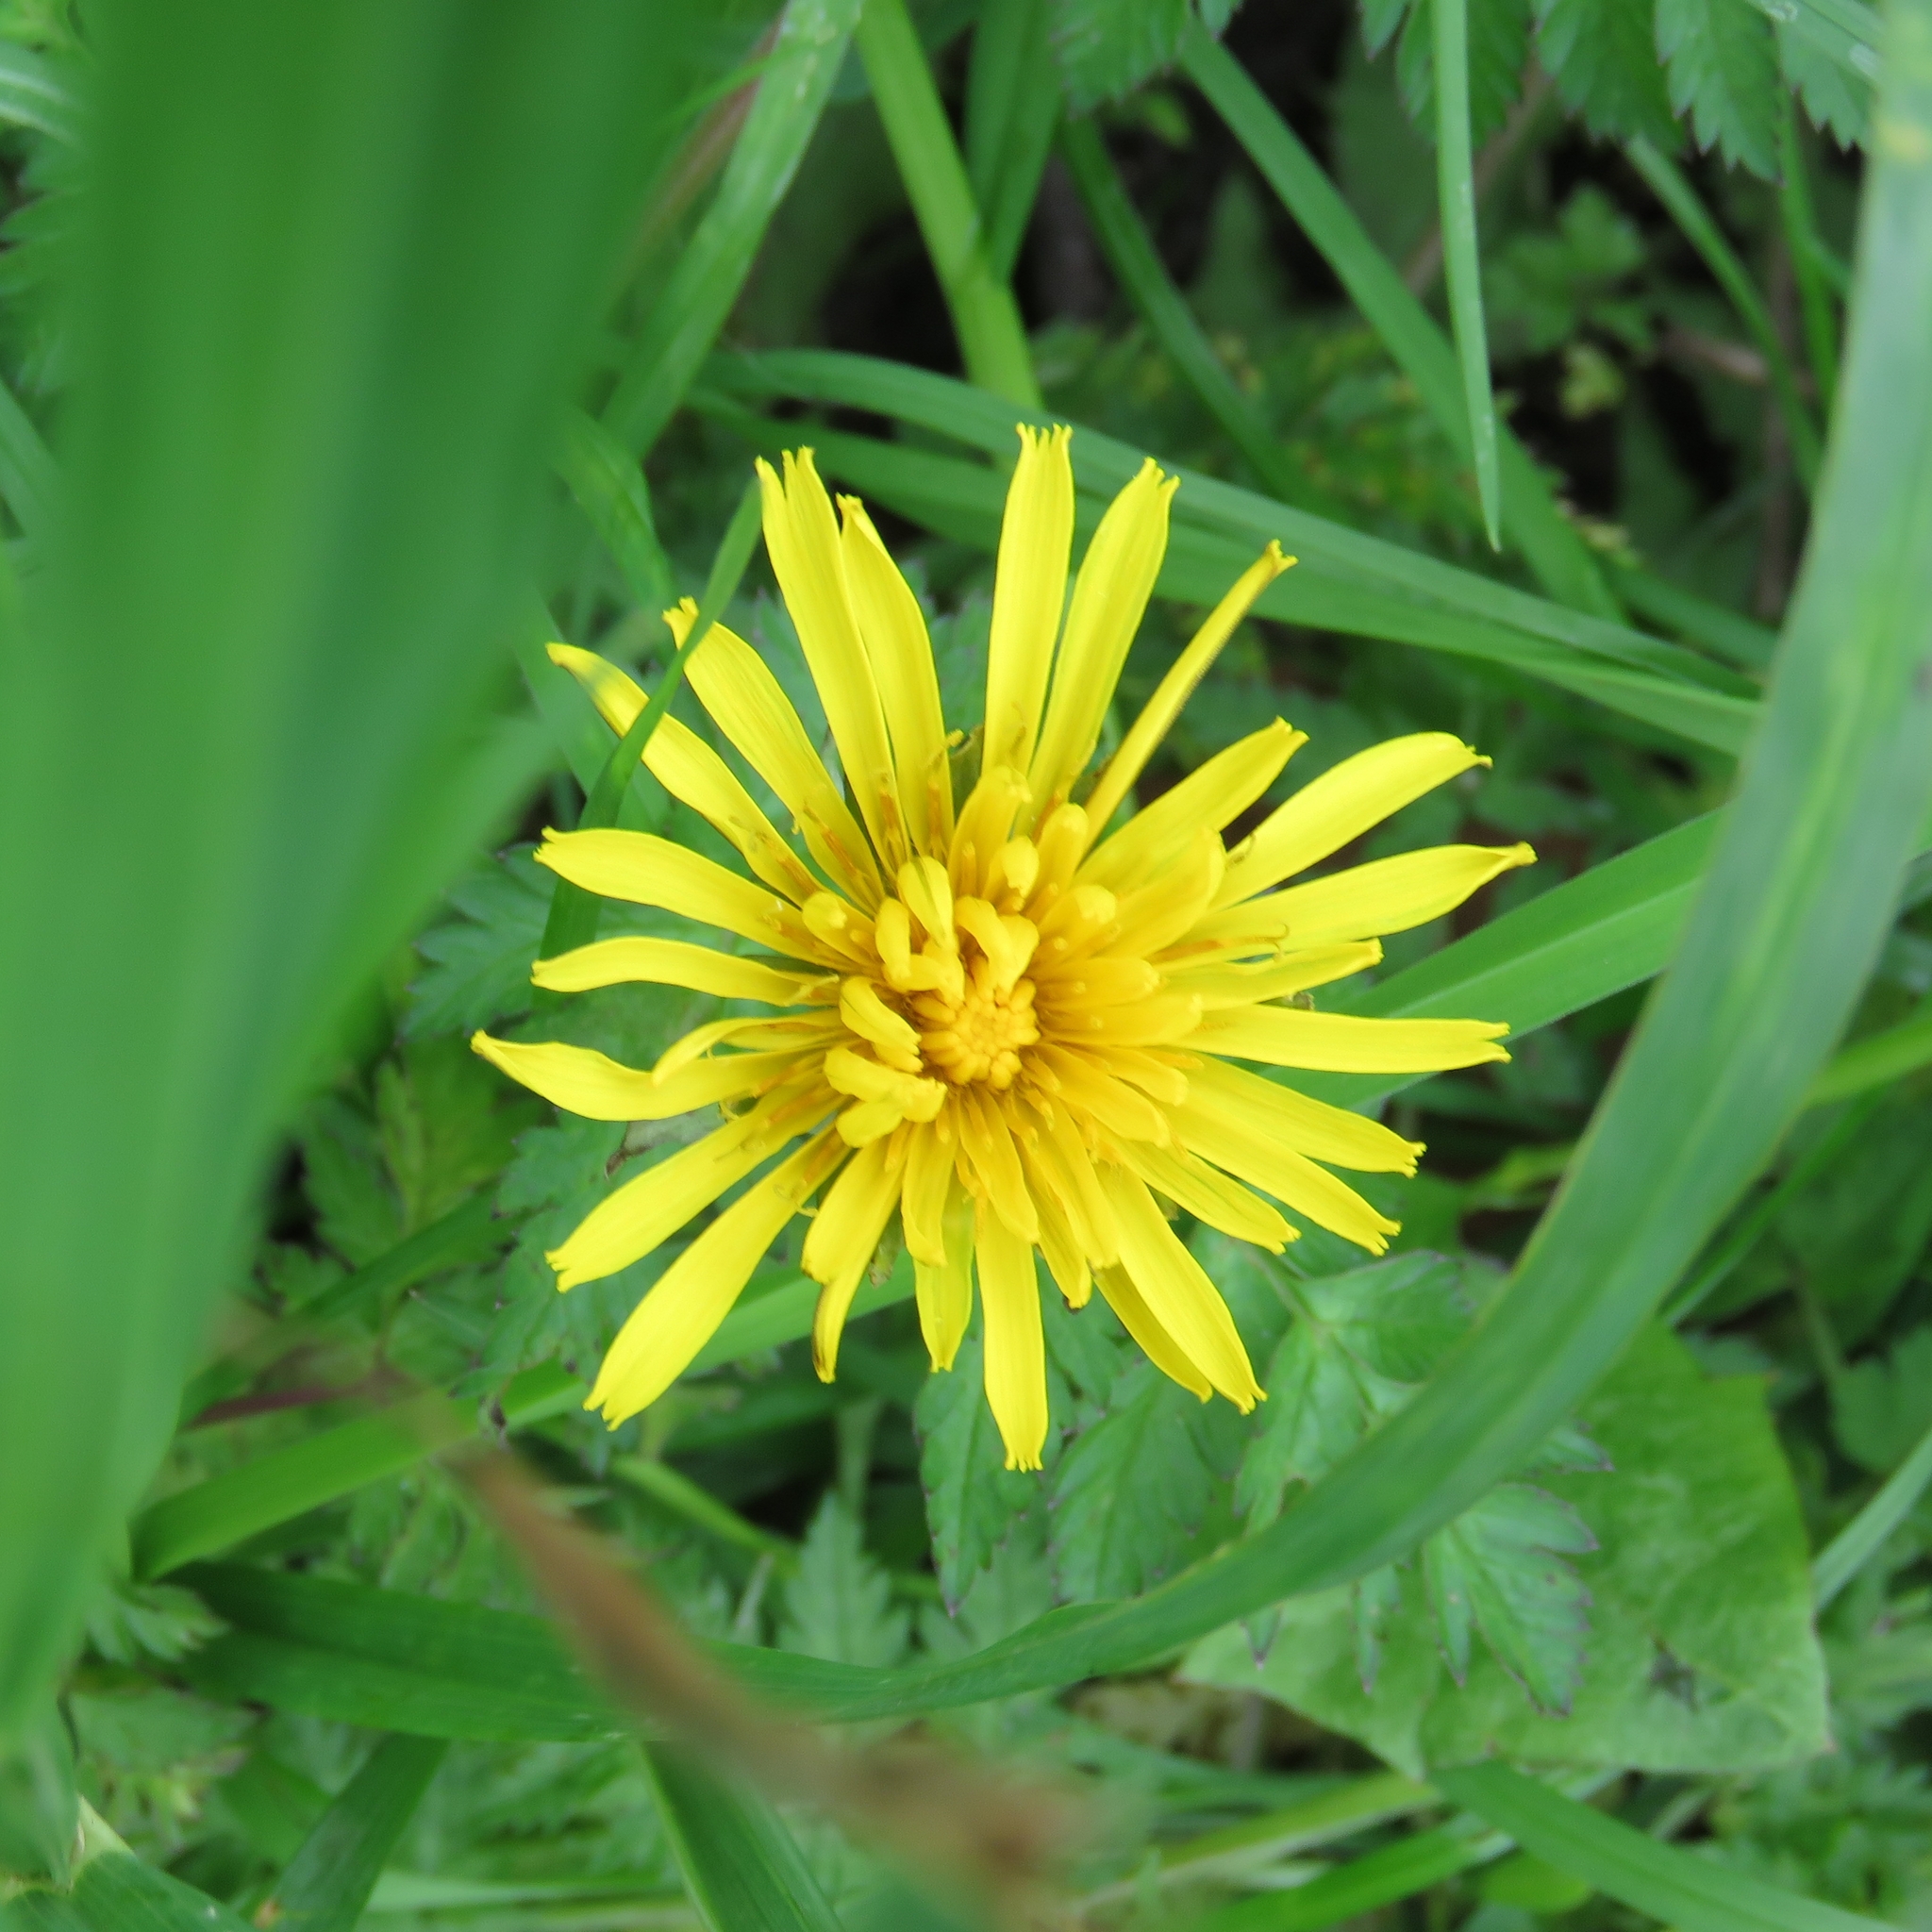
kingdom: Plantae
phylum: Tracheophyta
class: Magnoliopsida
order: Asterales
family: Asteraceae
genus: Taraxacum
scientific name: Taraxacum officinale
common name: Common dandelion
